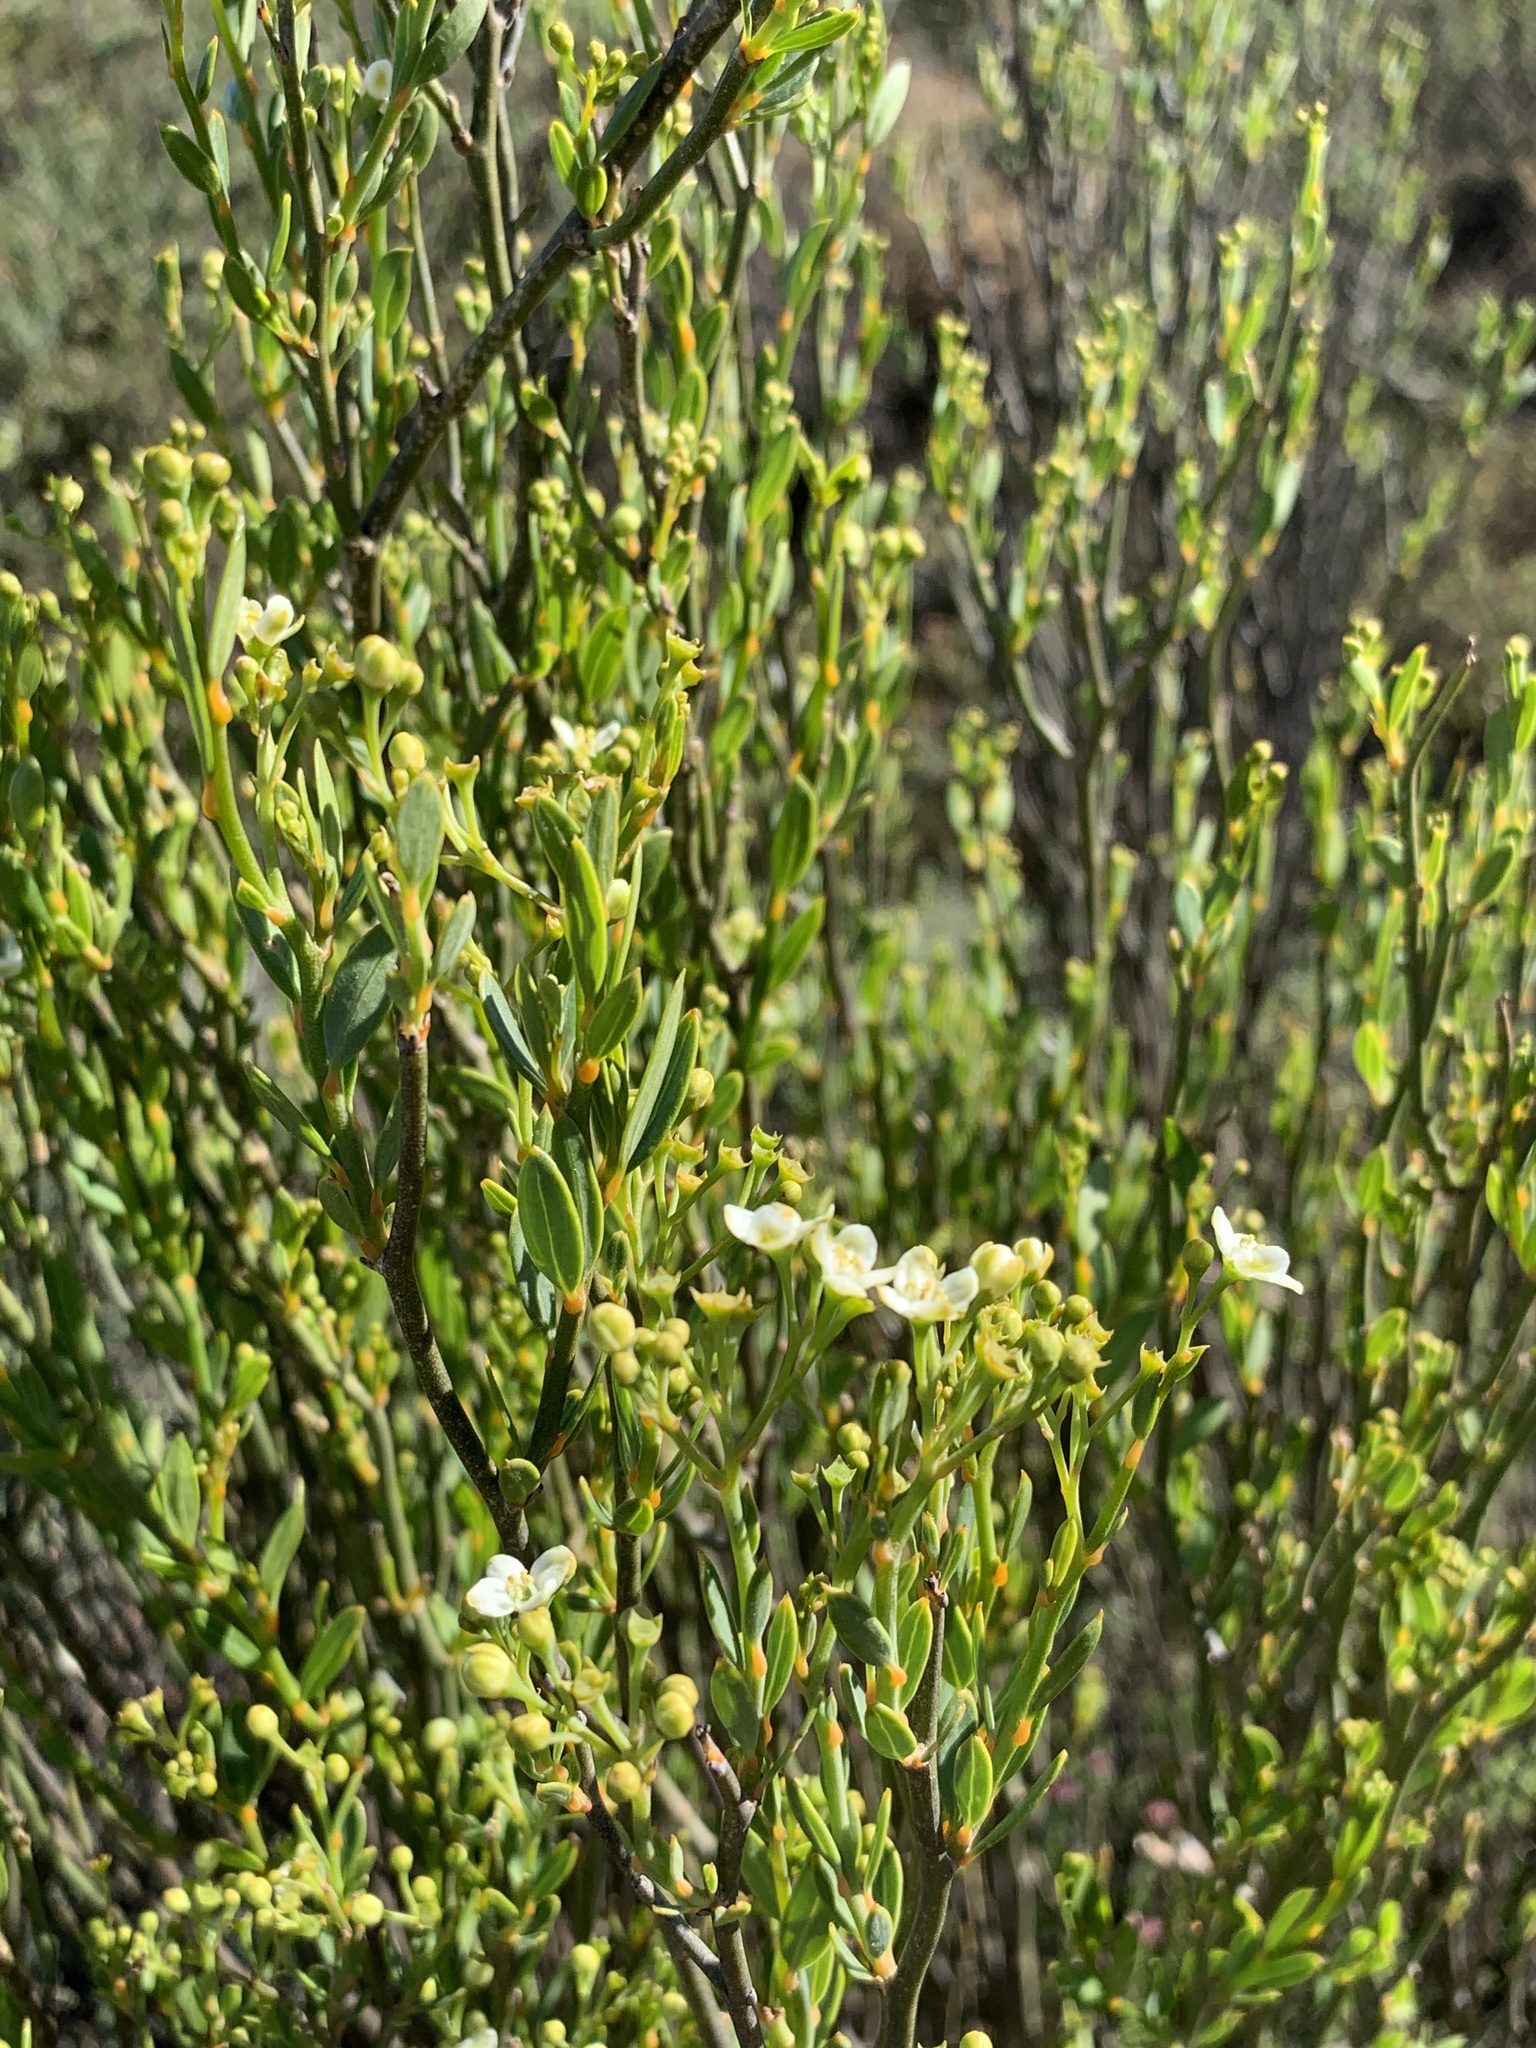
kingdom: Plantae
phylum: Tracheophyta
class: Magnoliopsida
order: Solanales
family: Montiniaceae
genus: Montinia
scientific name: Montinia caryophyllacea
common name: Wild clove-bush
